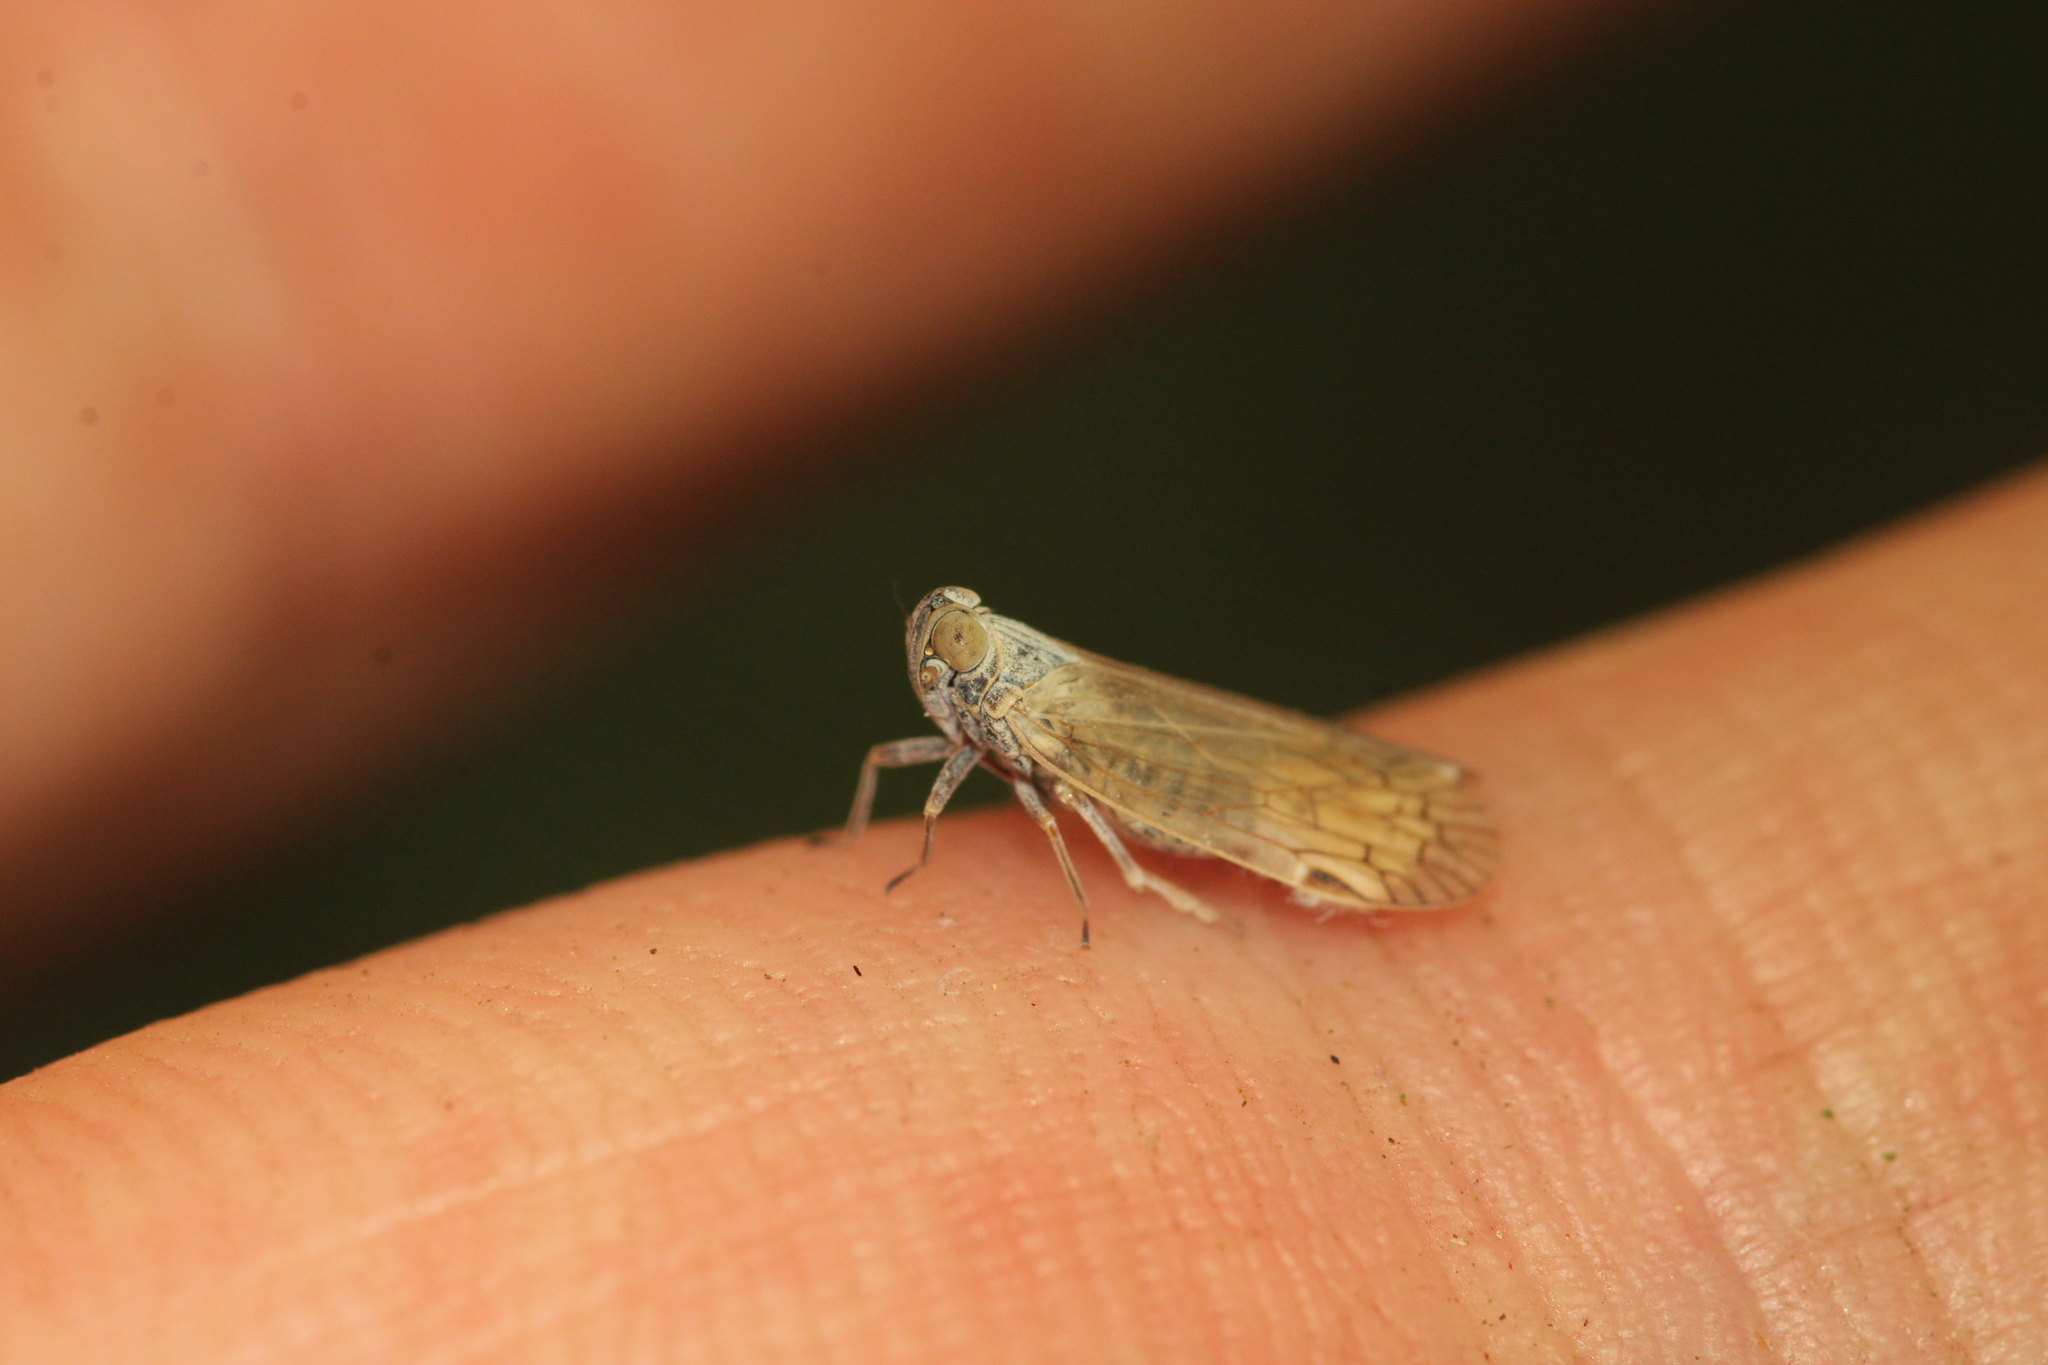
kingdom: Animalia
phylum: Arthropoda
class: Insecta
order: Hemiptera
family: Cixiidae
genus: Pentastiridius
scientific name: Pentastiridius leporinus
